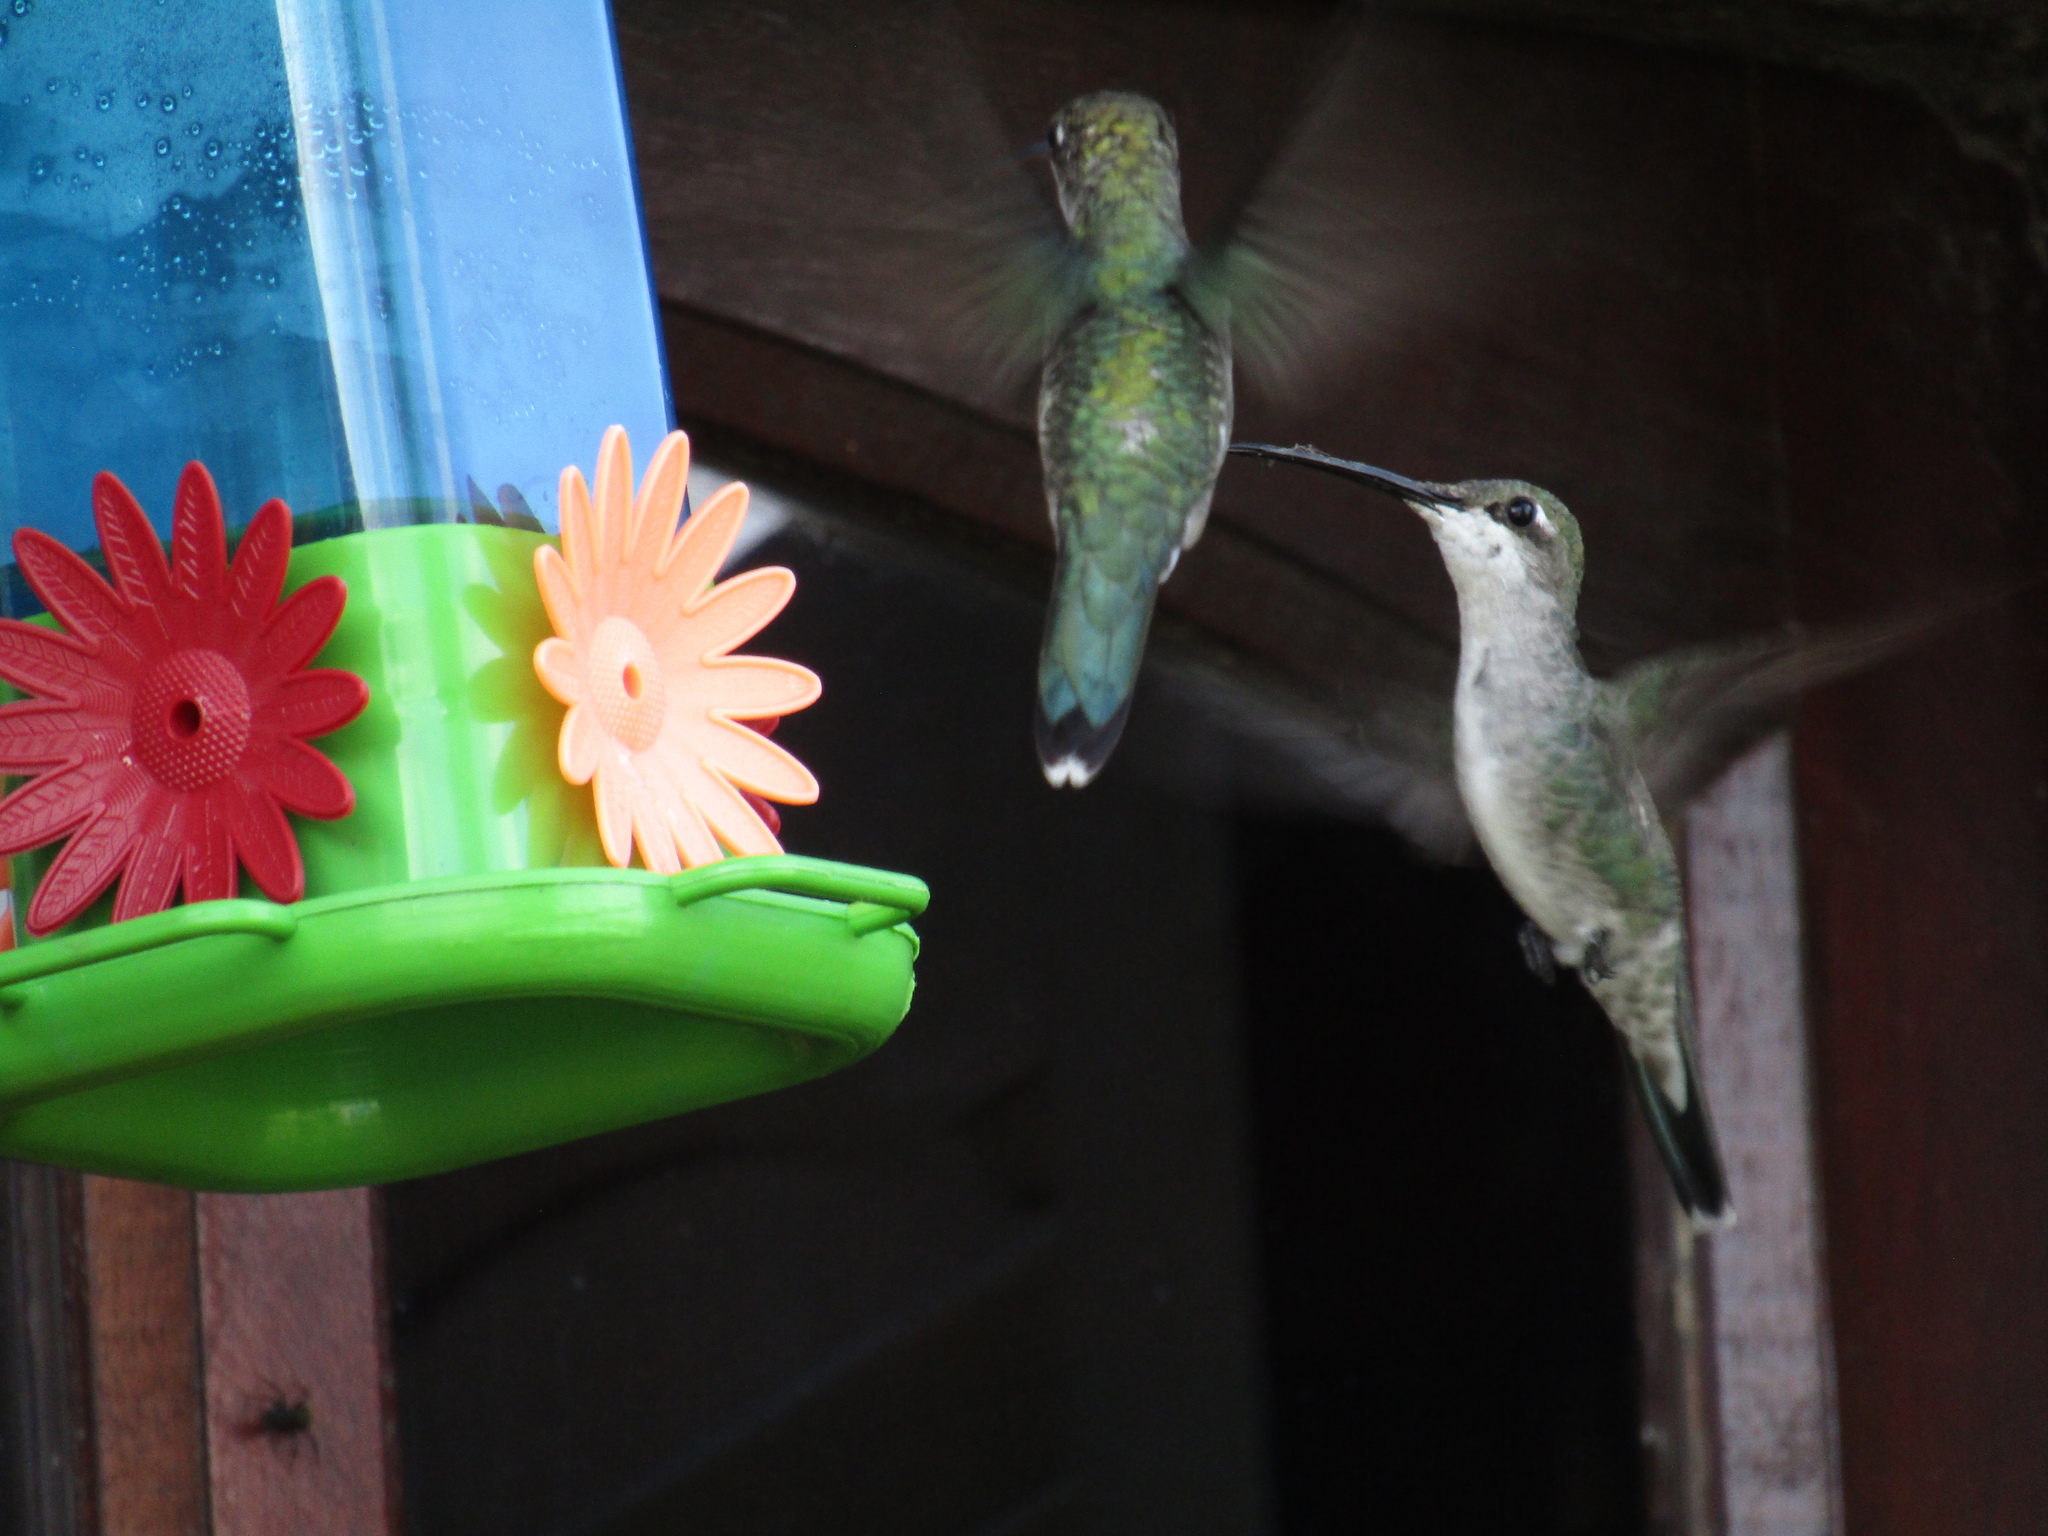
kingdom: Animalia
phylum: Chordata
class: Aves
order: Apodiformes
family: Trochilidae
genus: Heliomaster
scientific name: Heliomaster furcifer
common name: Blue-tufted starthroat
